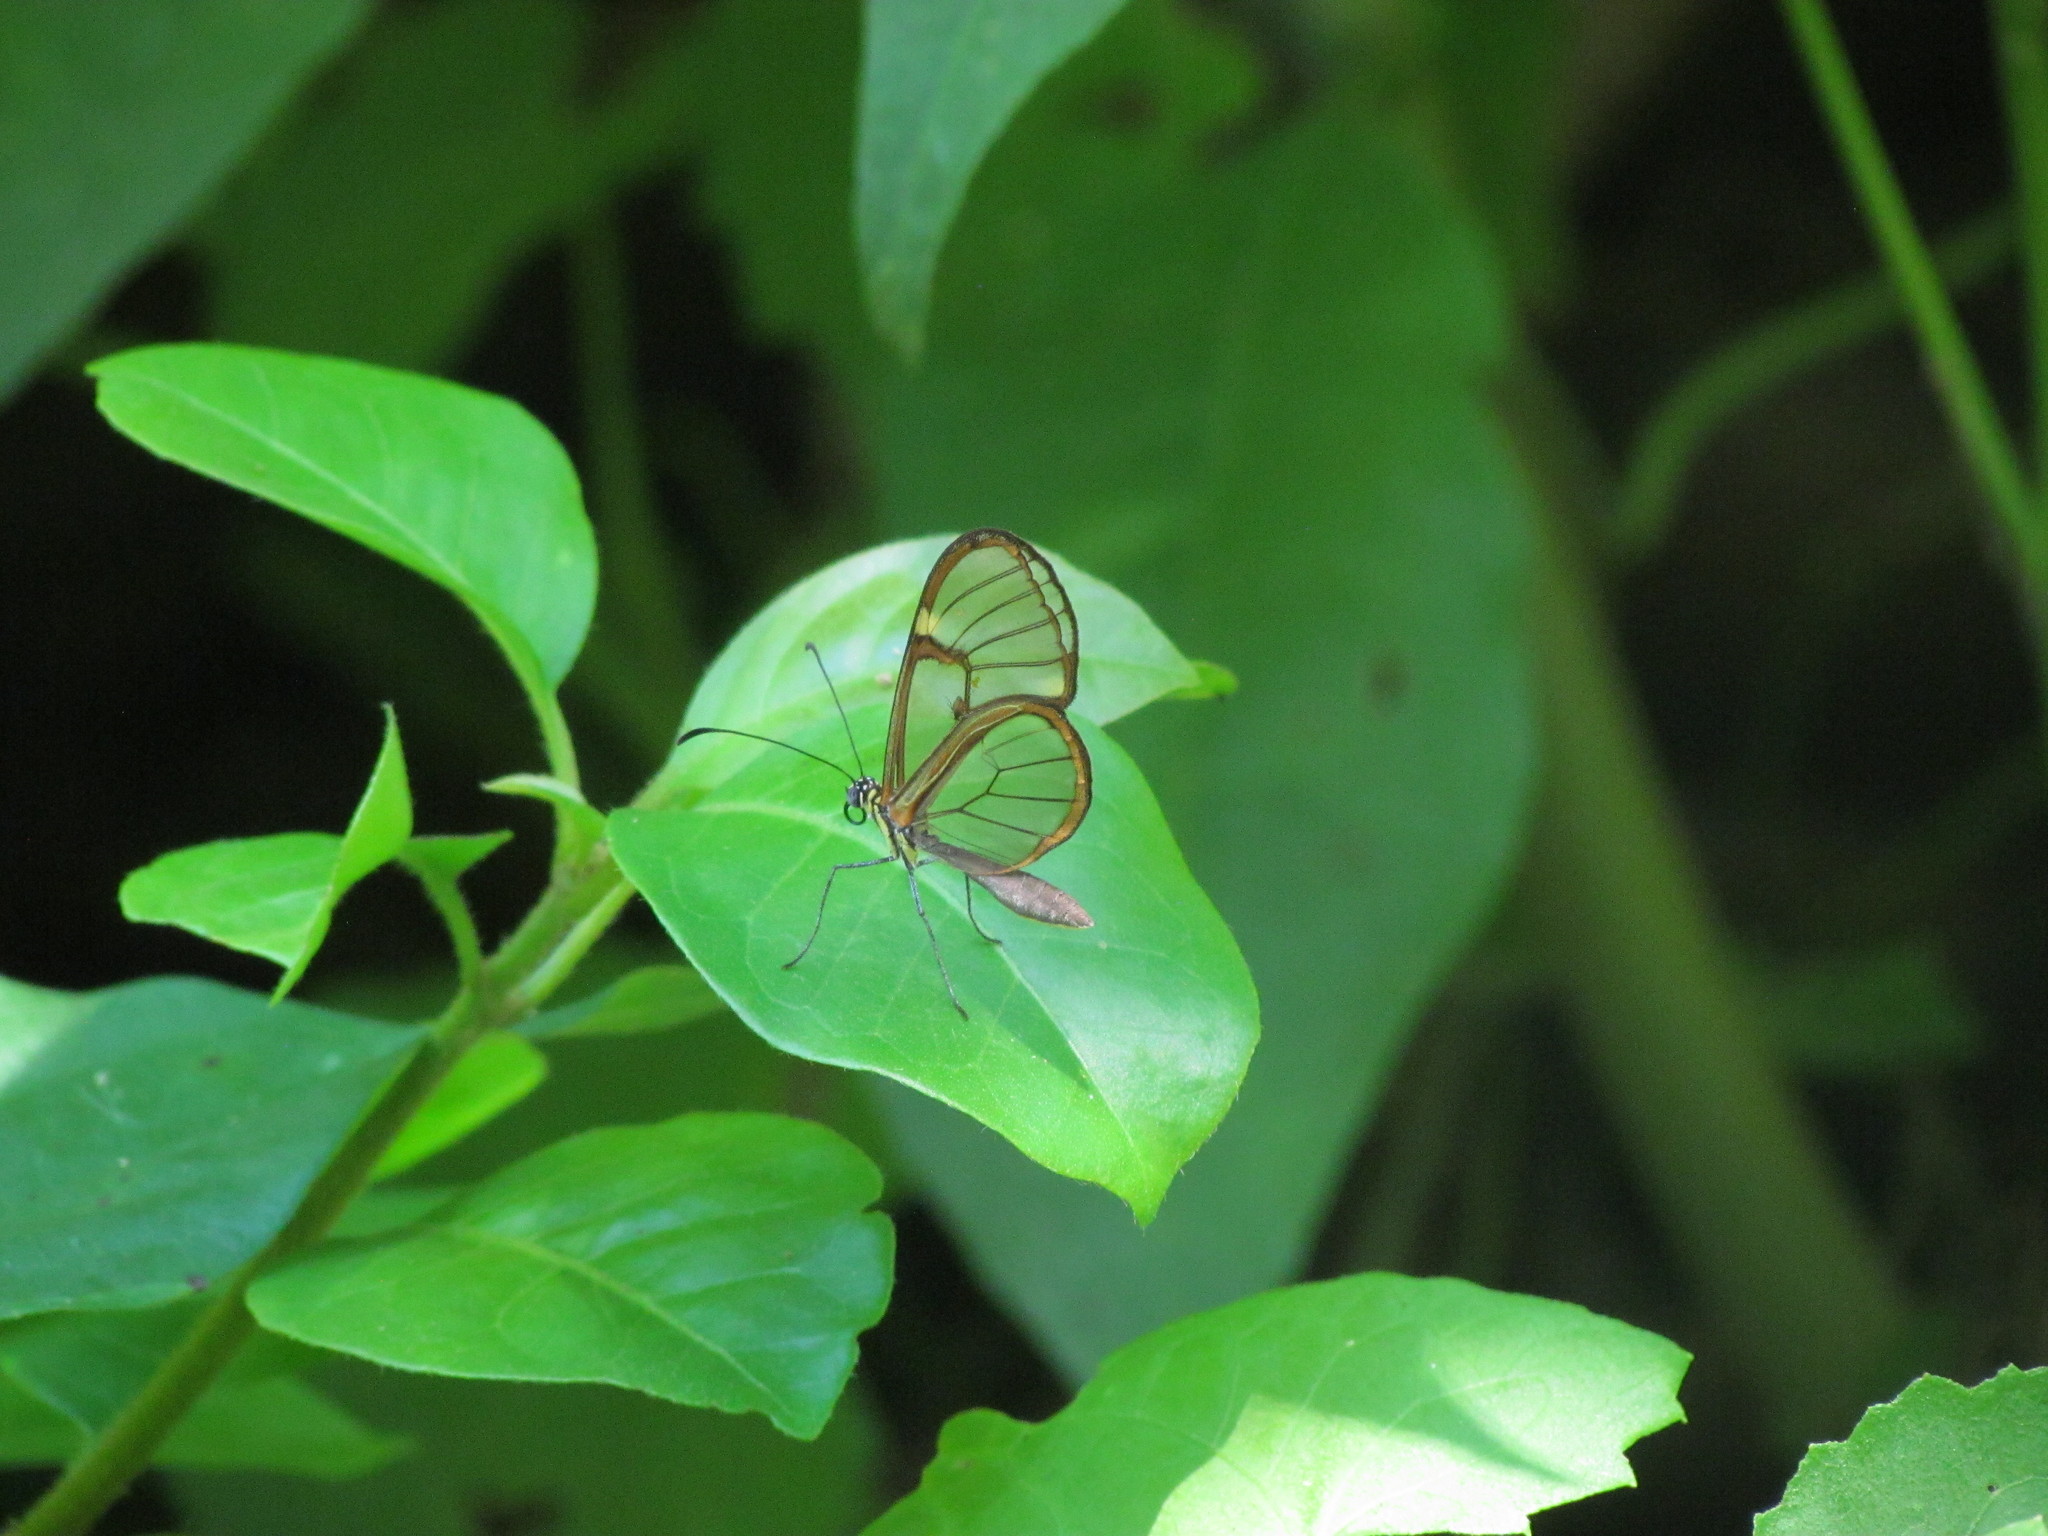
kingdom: Animalia
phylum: Arthropoda
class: Insecta
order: Lepidoptera
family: Nymphalidae
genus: Episcada
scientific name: Episcada hymenaea
